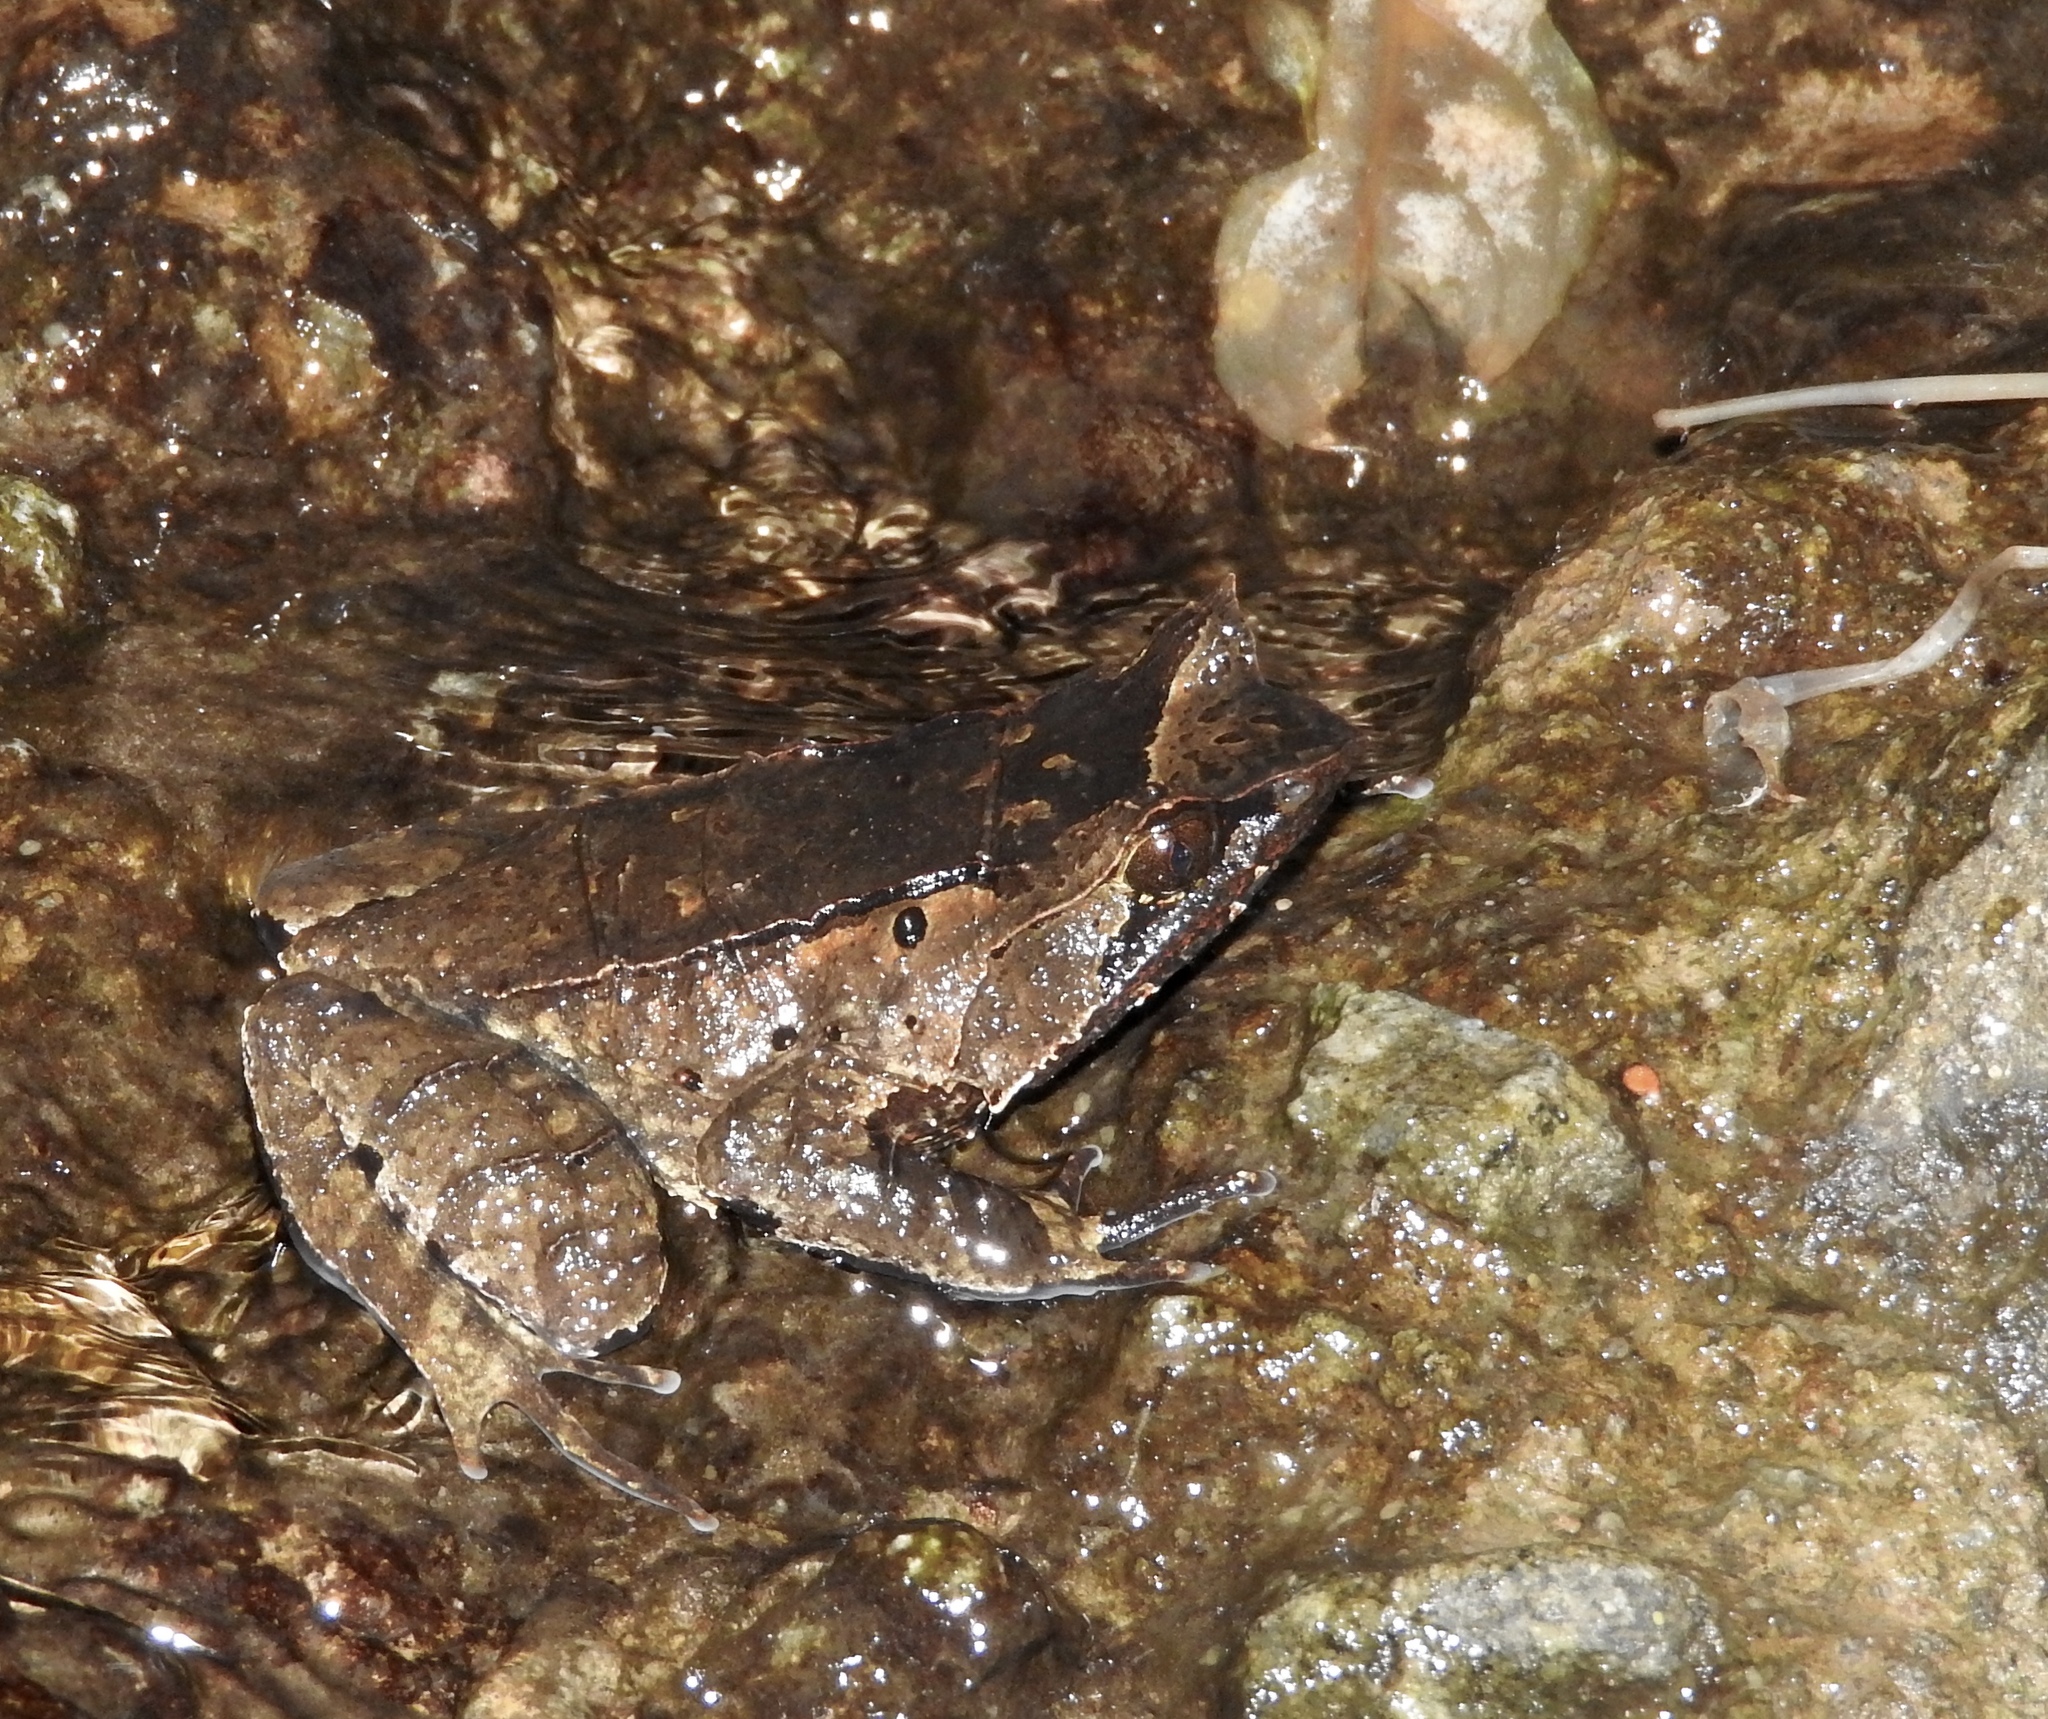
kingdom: Animalia
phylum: Chordata
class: Amphibia
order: Anura
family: Megophryidae
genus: Megophrys
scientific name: Megophrys montana
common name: Asian spadefoot toad
